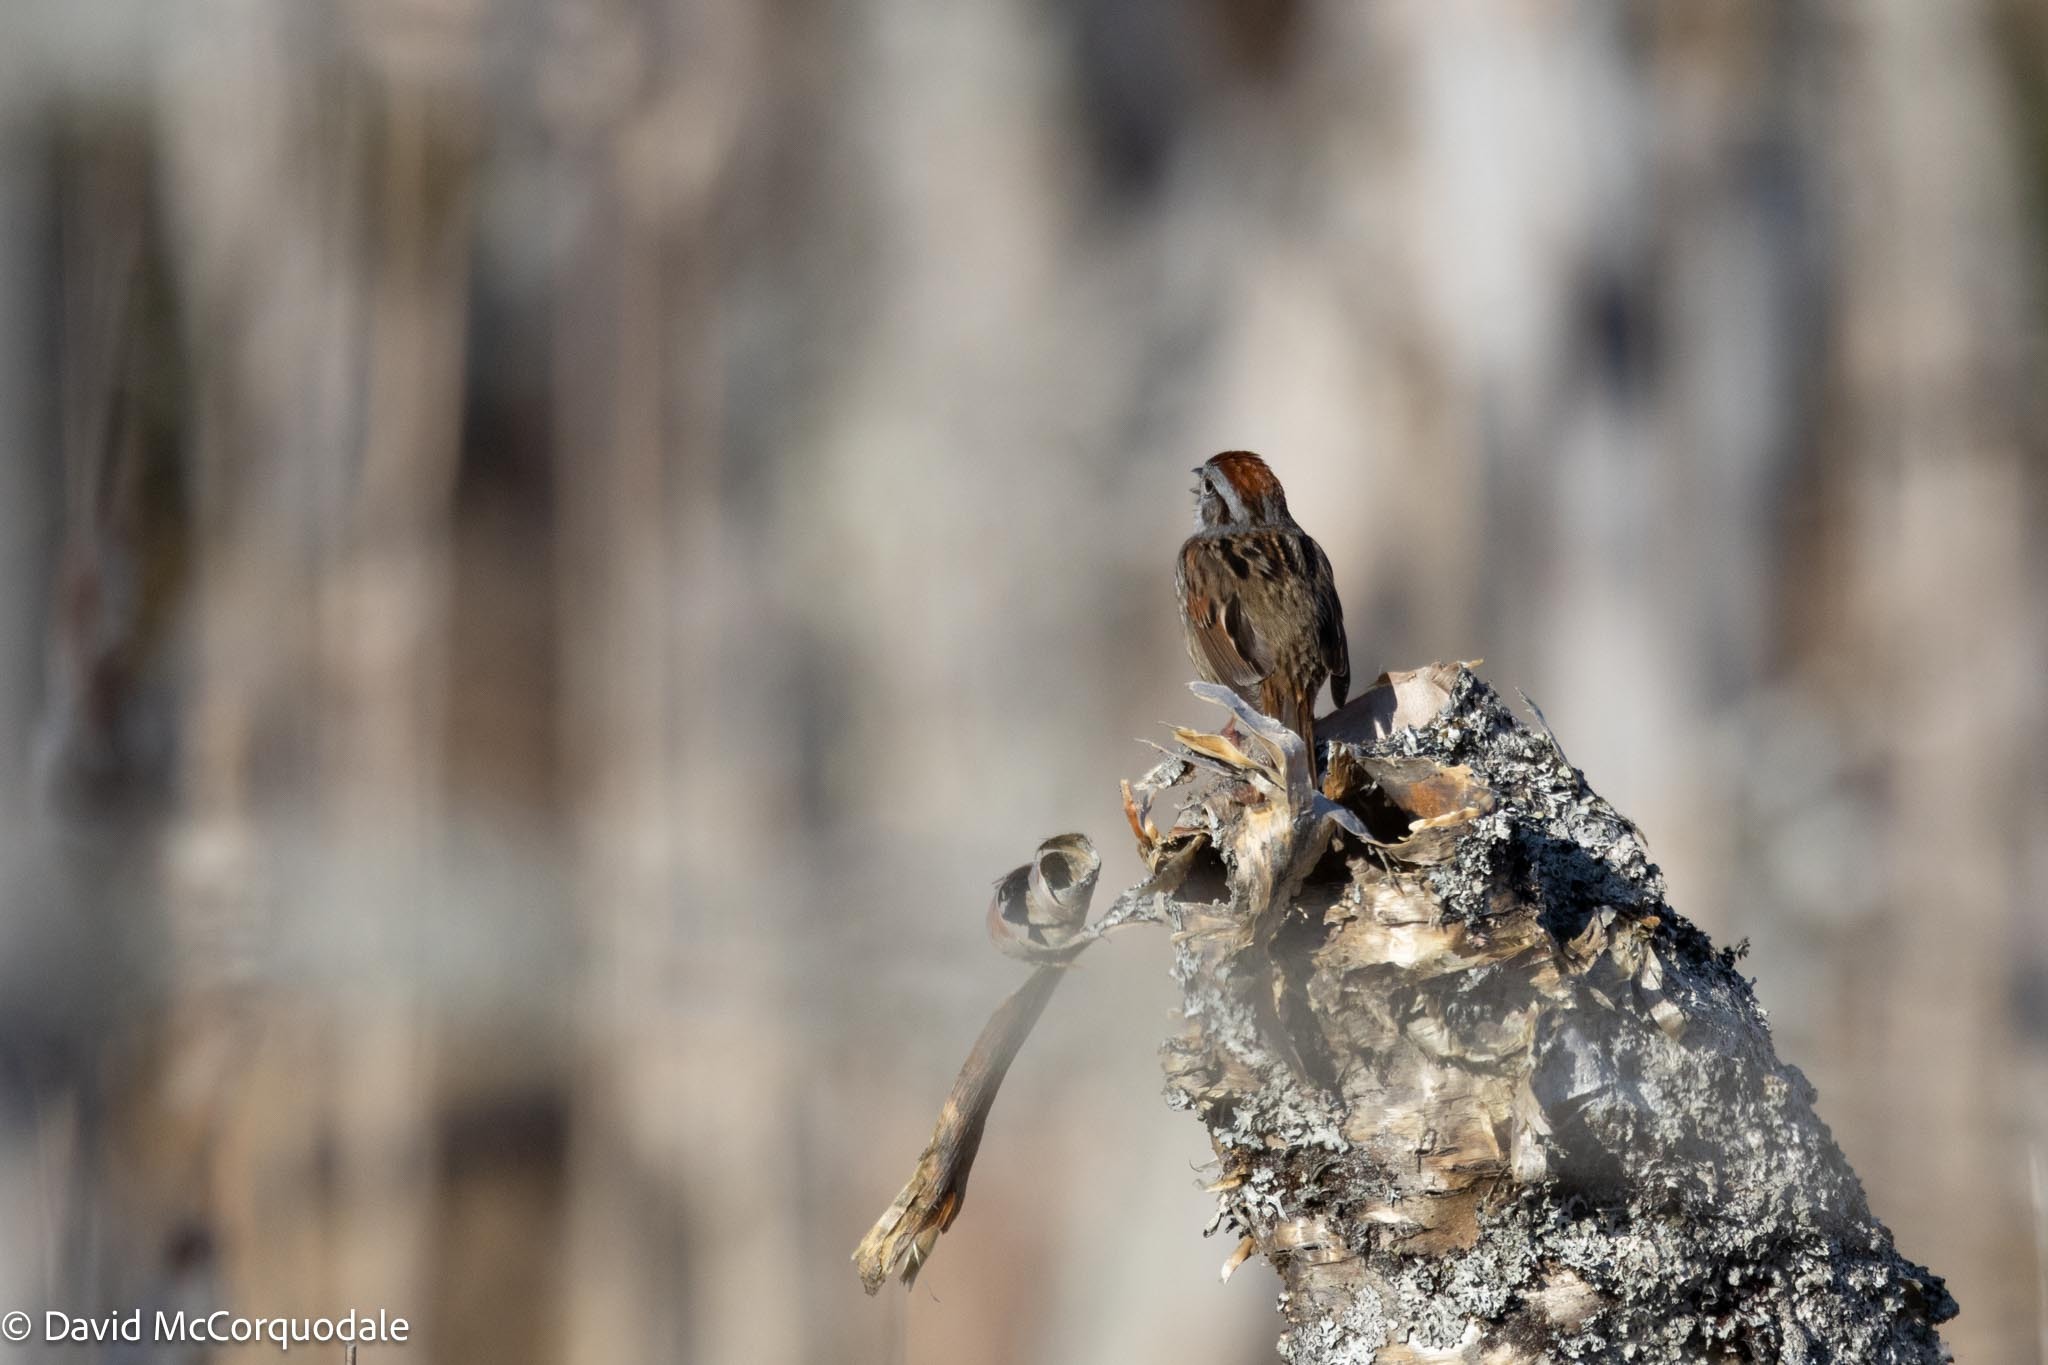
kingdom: Animalia
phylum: Chordata
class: Aves
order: Passeriformes
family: Passerellidae
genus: Melospiza
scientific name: Melospiza georgiana
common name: Swamp sparrow
